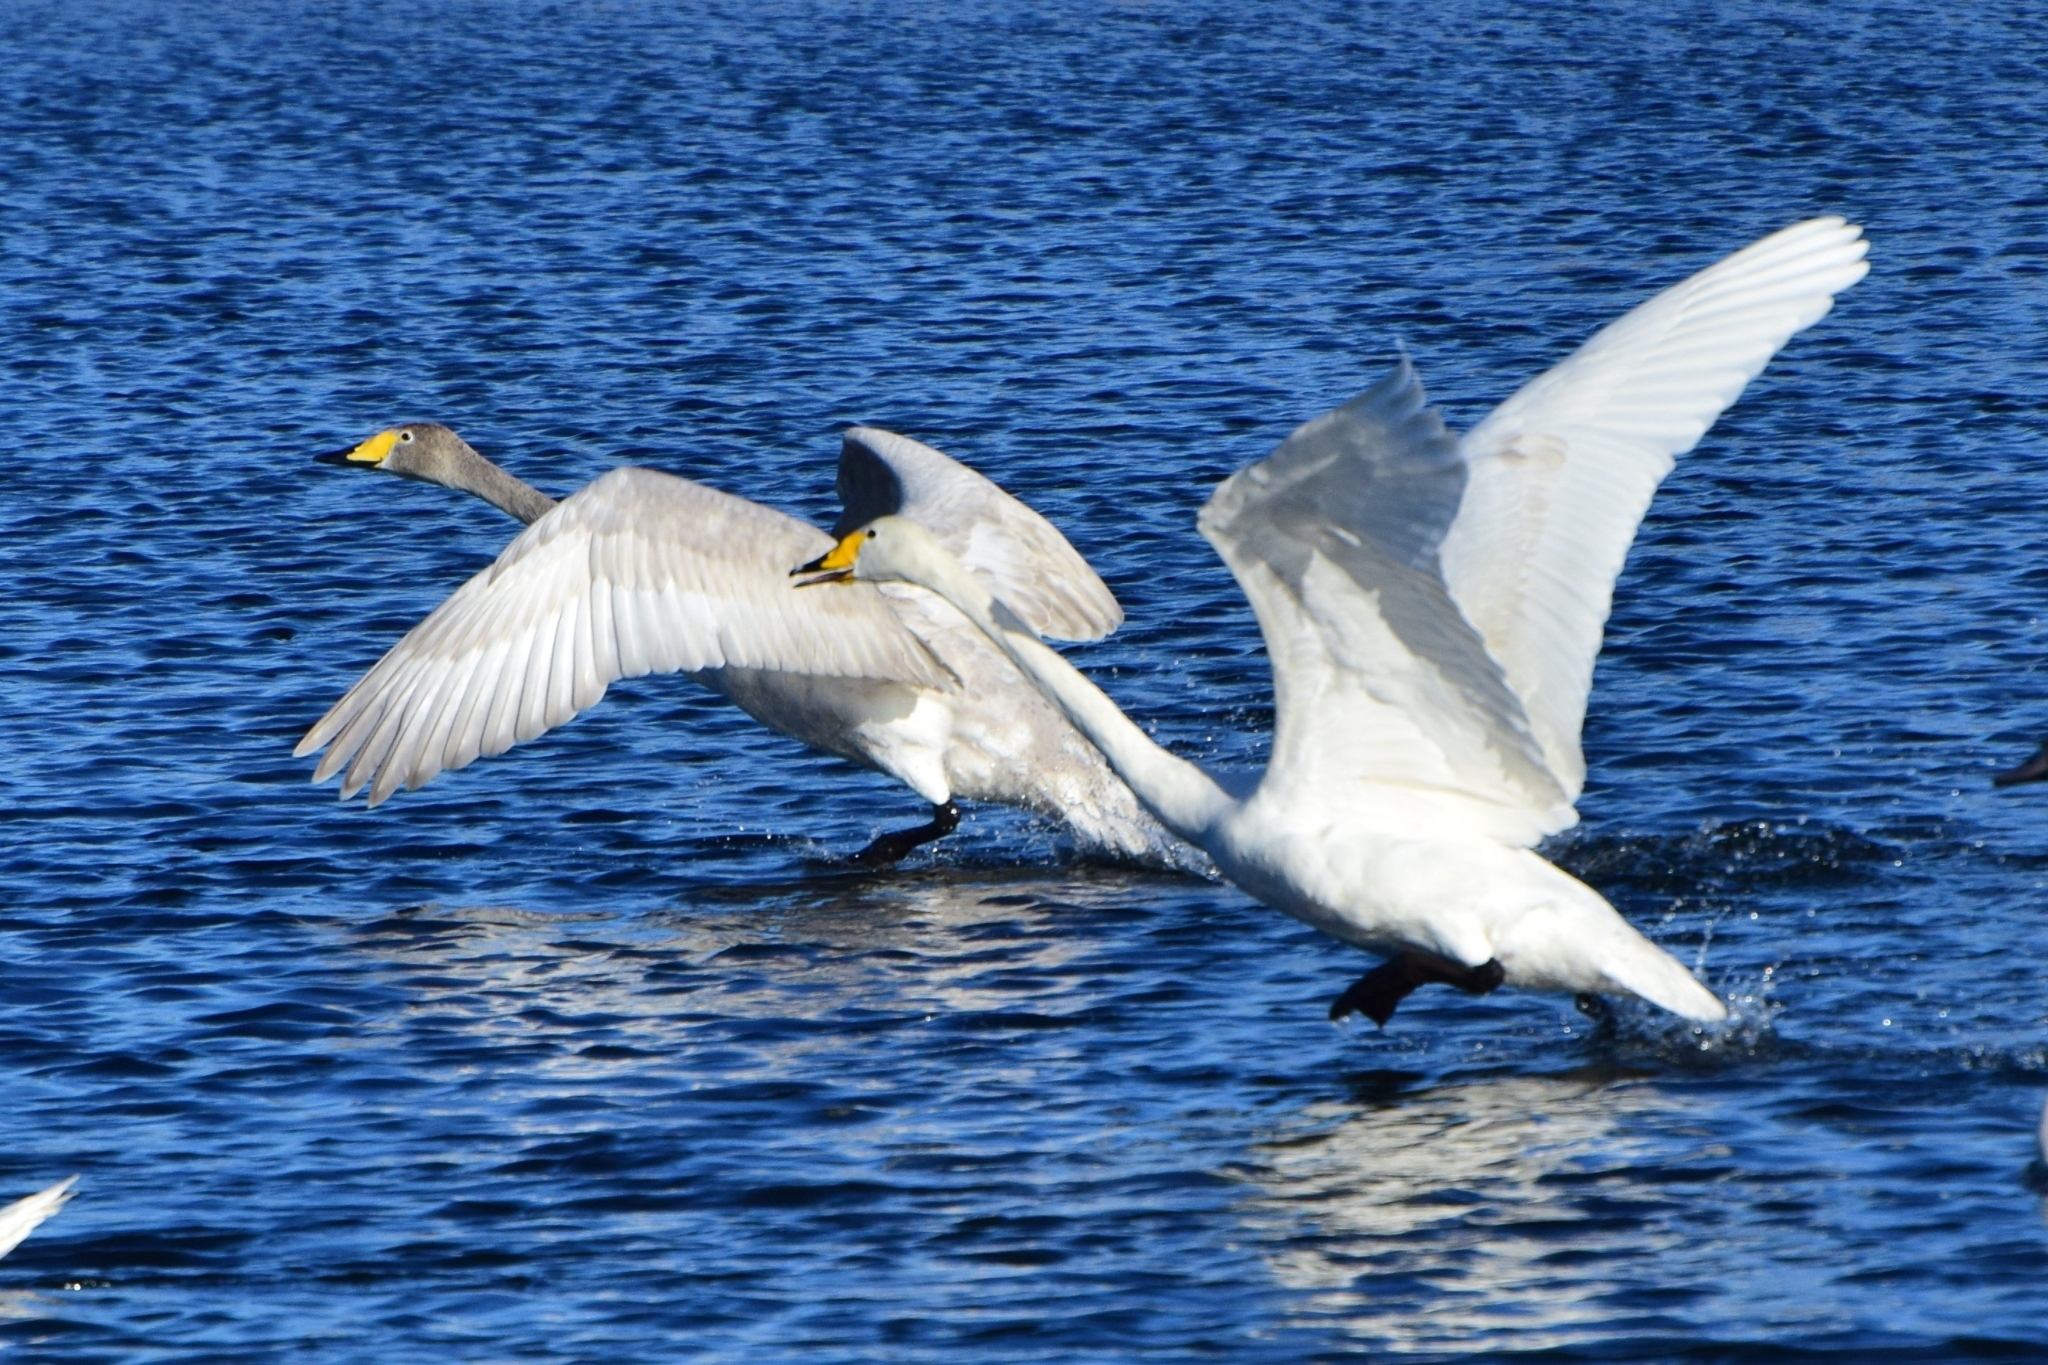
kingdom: Animalia
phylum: Chordata
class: Aves
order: Anseriformes
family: Anatidae
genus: Cygnus
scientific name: Cygnus cygnus
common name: Whooper swan
